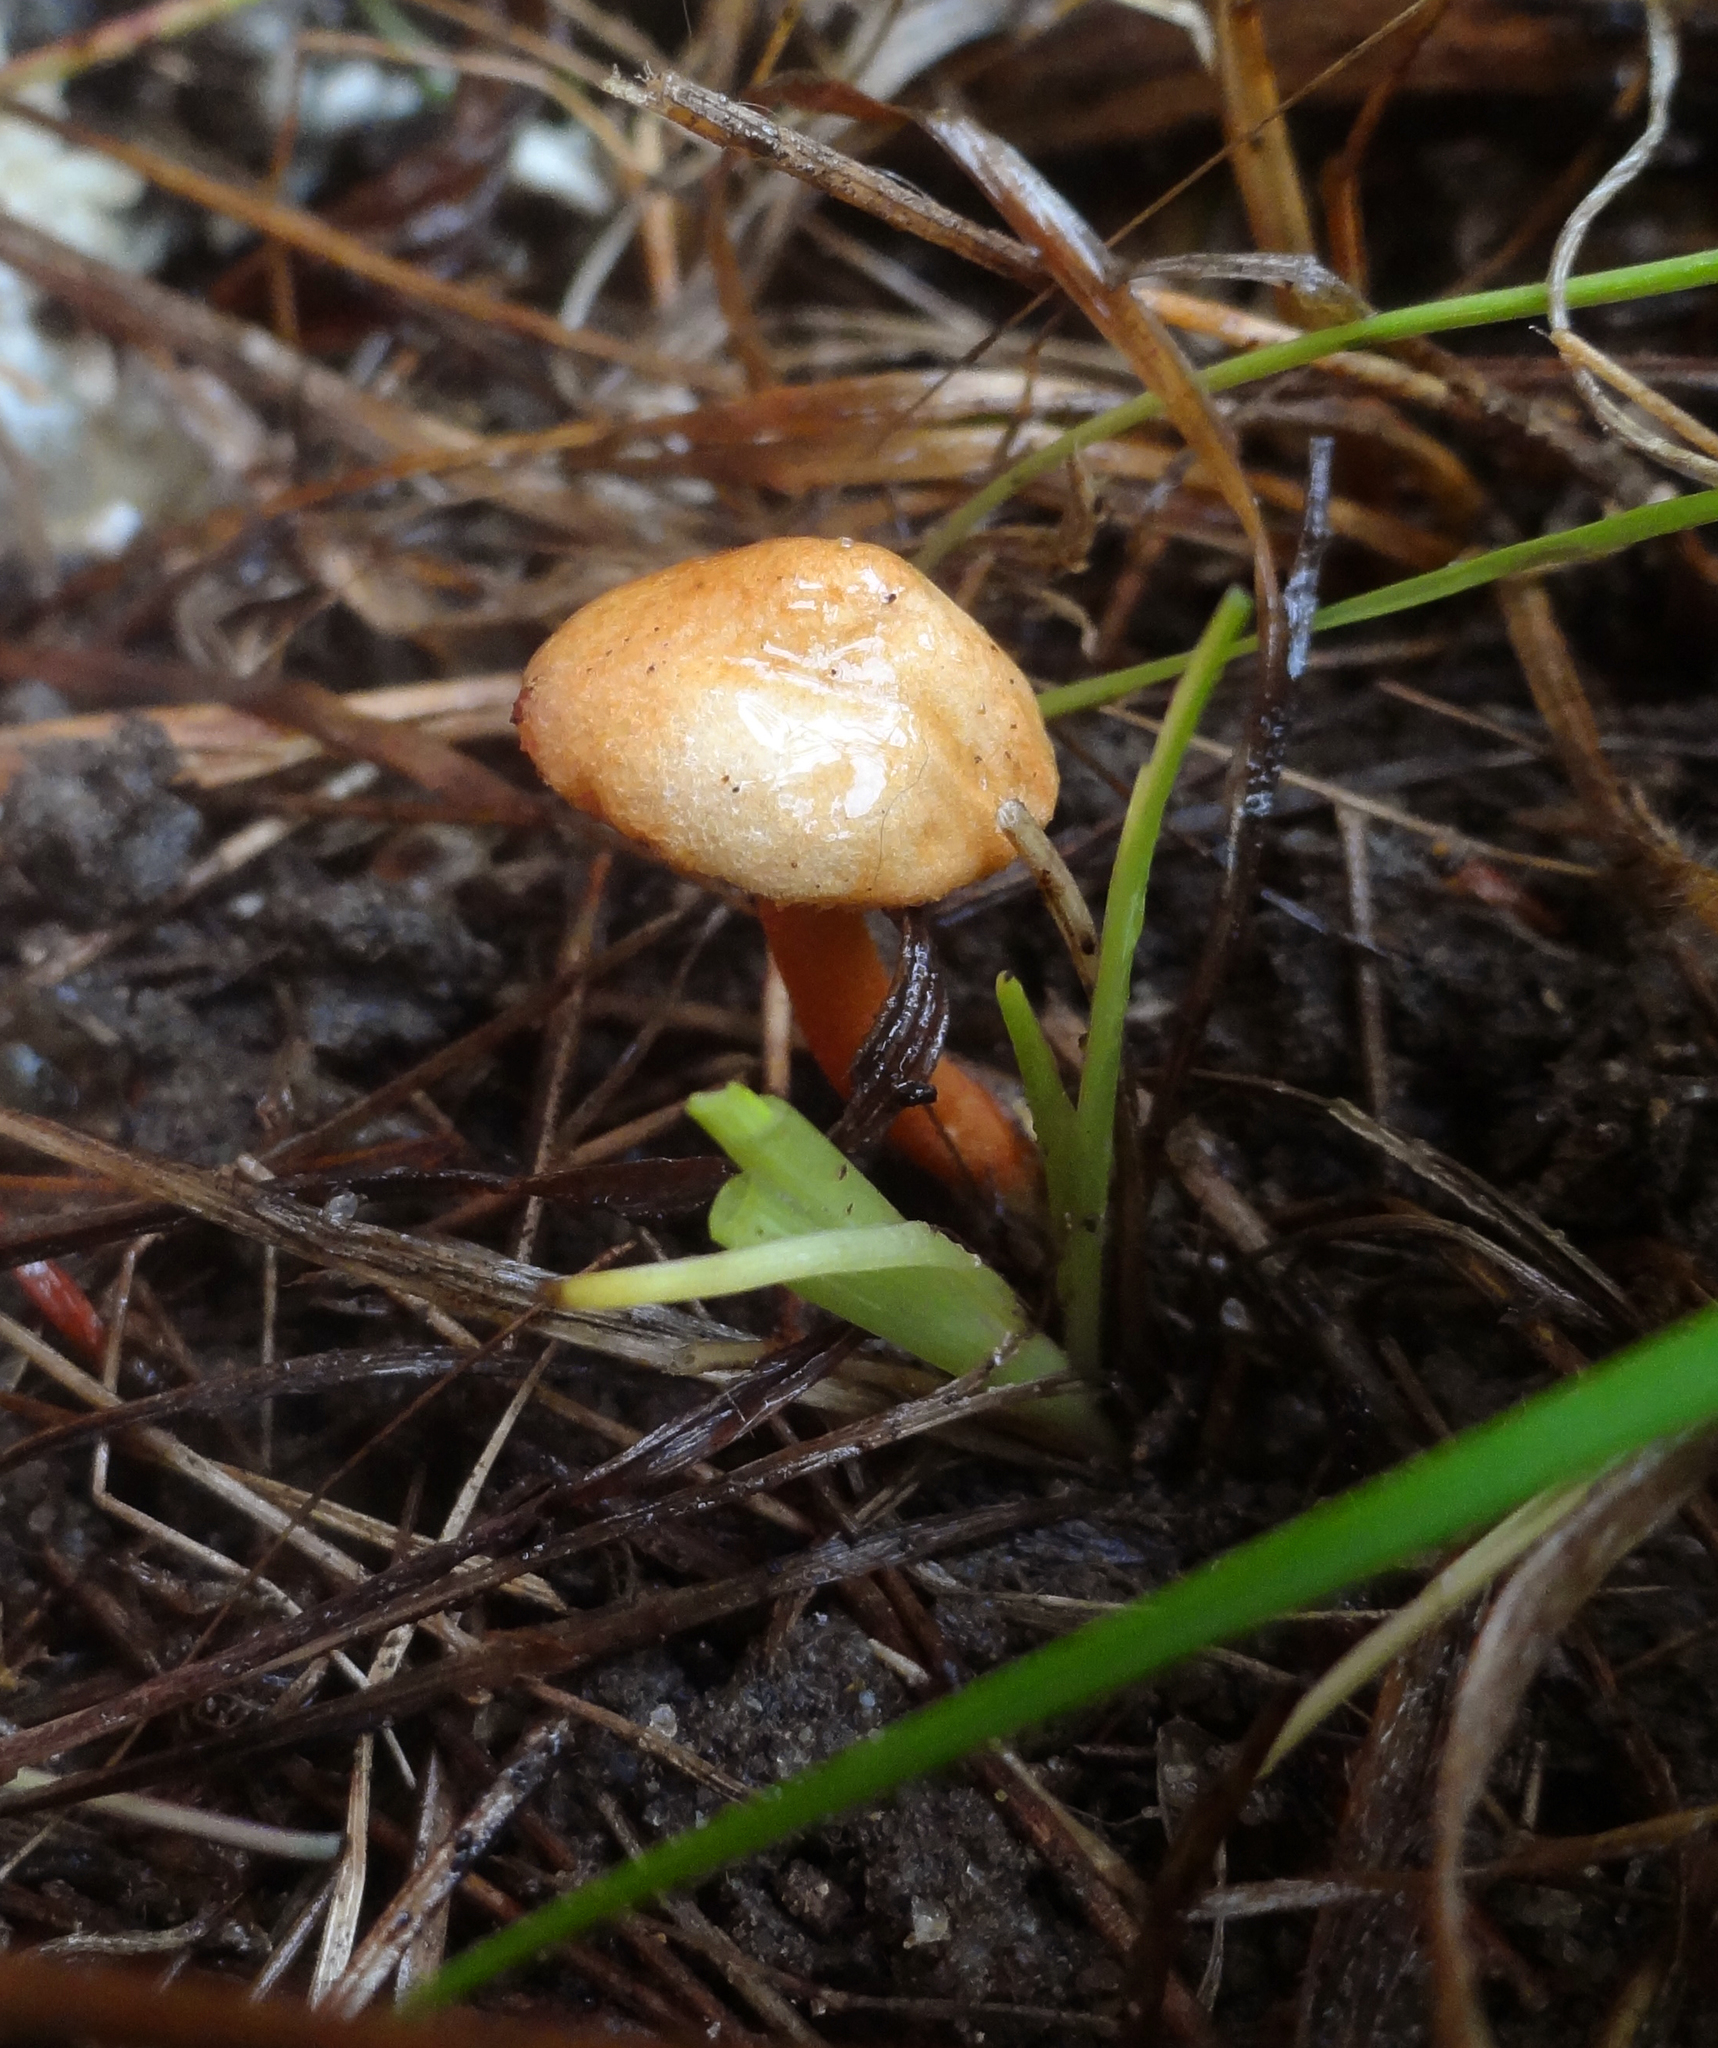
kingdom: Fungi
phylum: Basidiomycota
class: Agaricomycetes
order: Boletales
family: Boletaceae
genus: Chalciporus
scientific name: Chalciporus piperatus
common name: Peppery bolete
